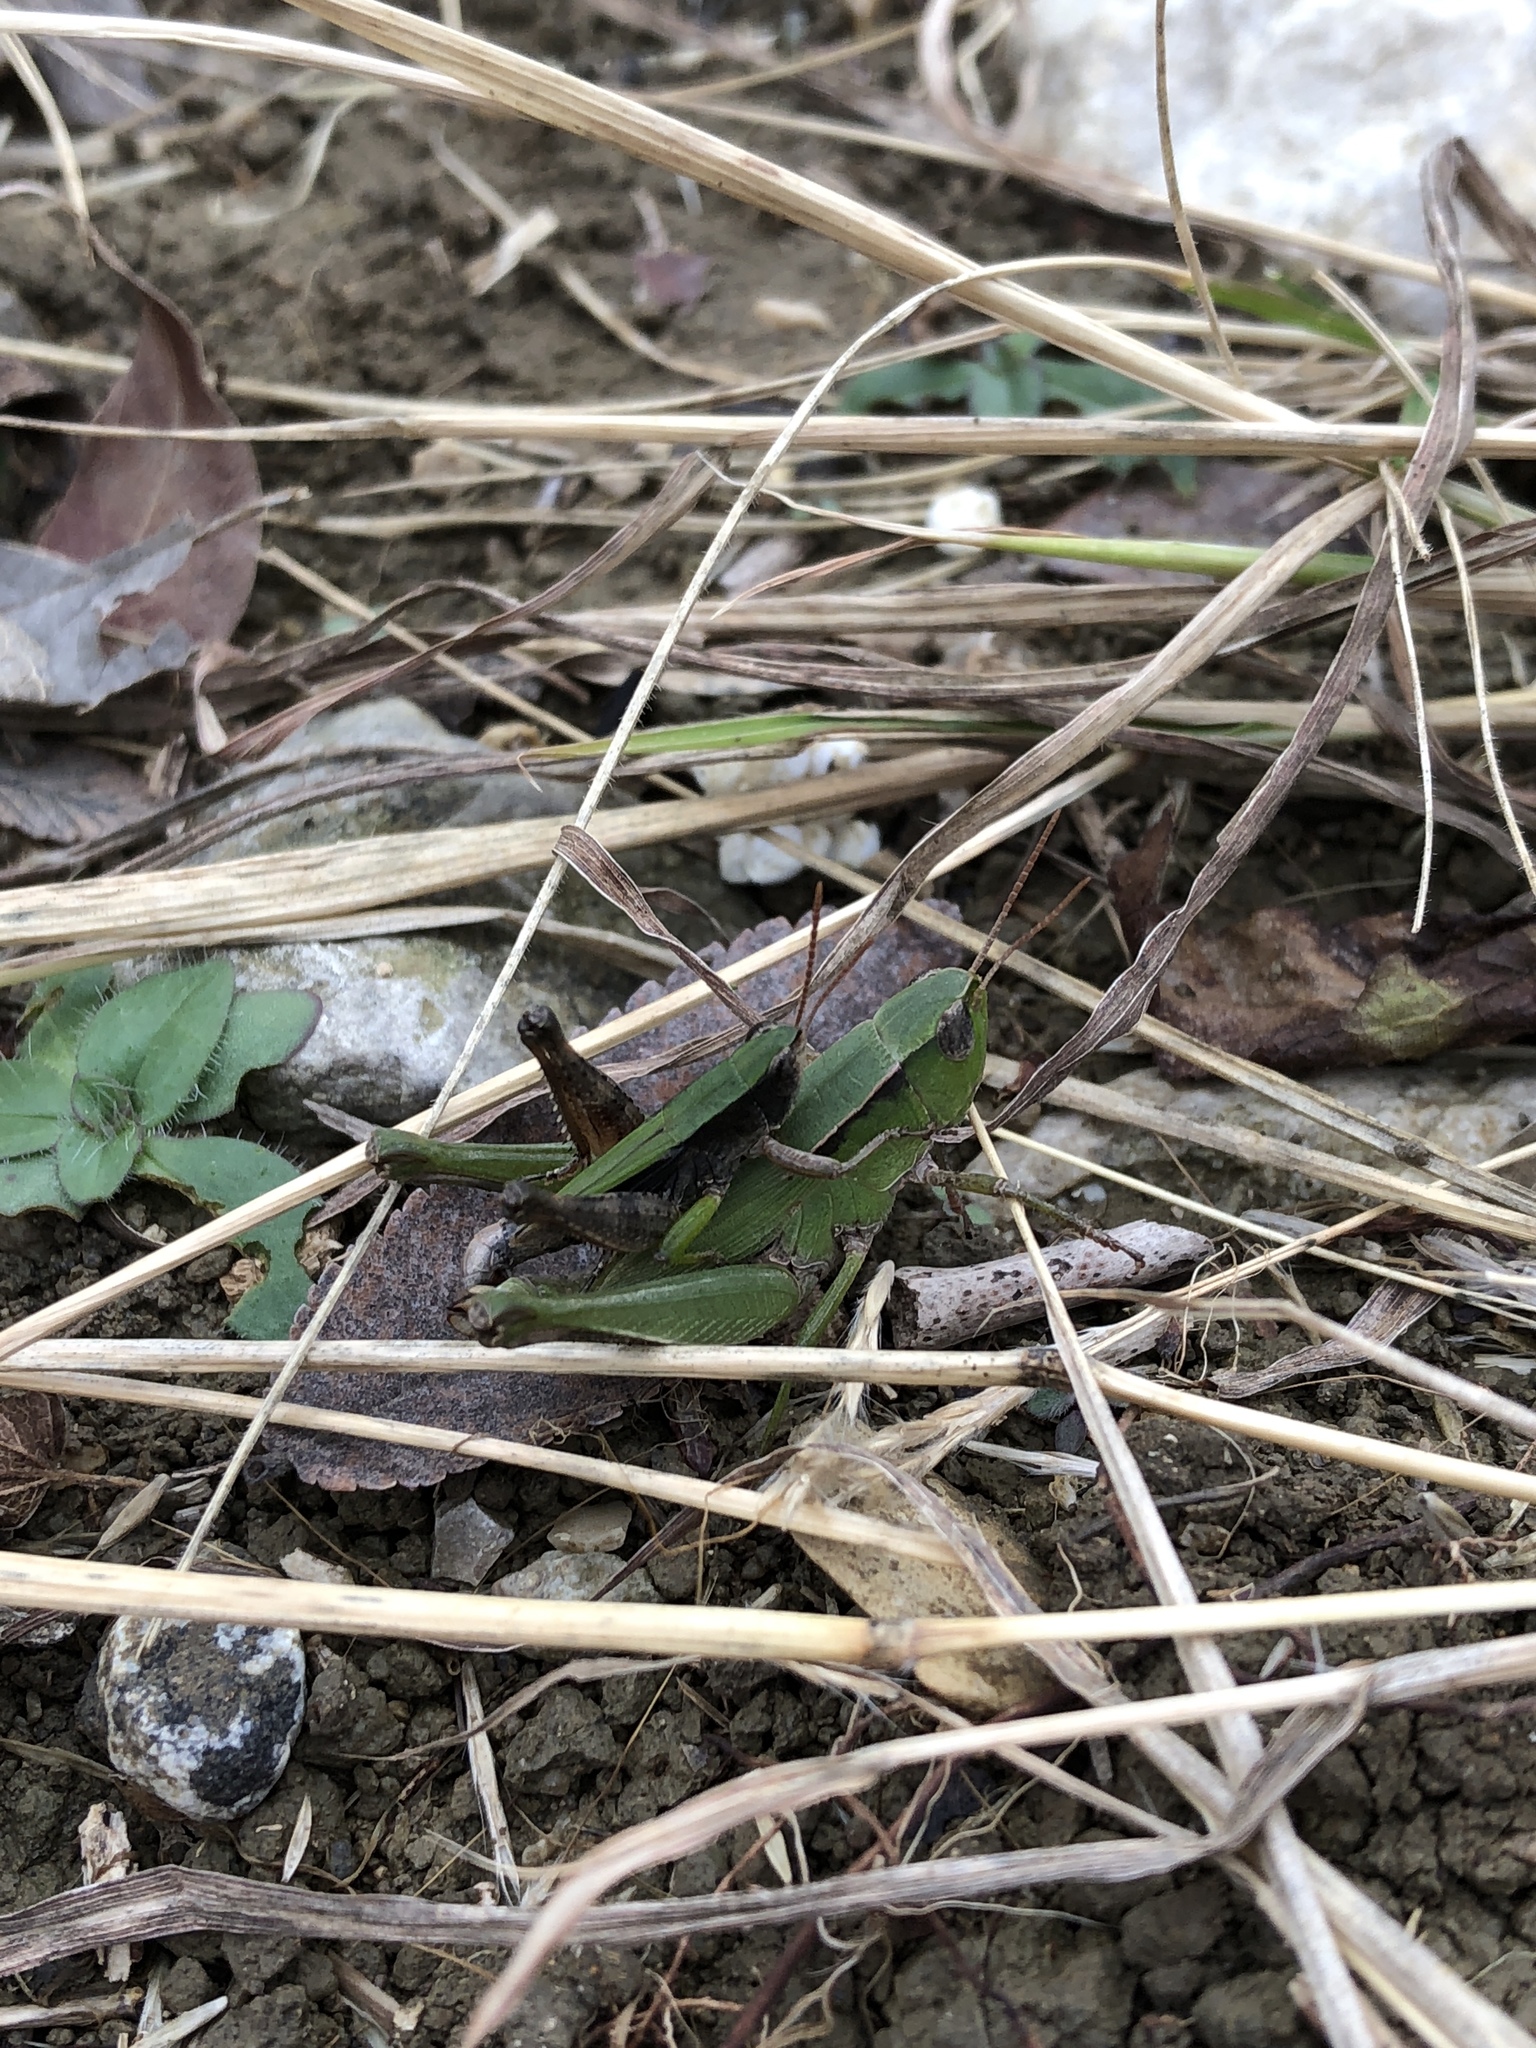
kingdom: Animalia
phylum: Arthropoda
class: Insecta
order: Orthoptera
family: Acrididae
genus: Dichromorpha
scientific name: Dichromorpha viridis
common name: Short-winged green grasshopper
